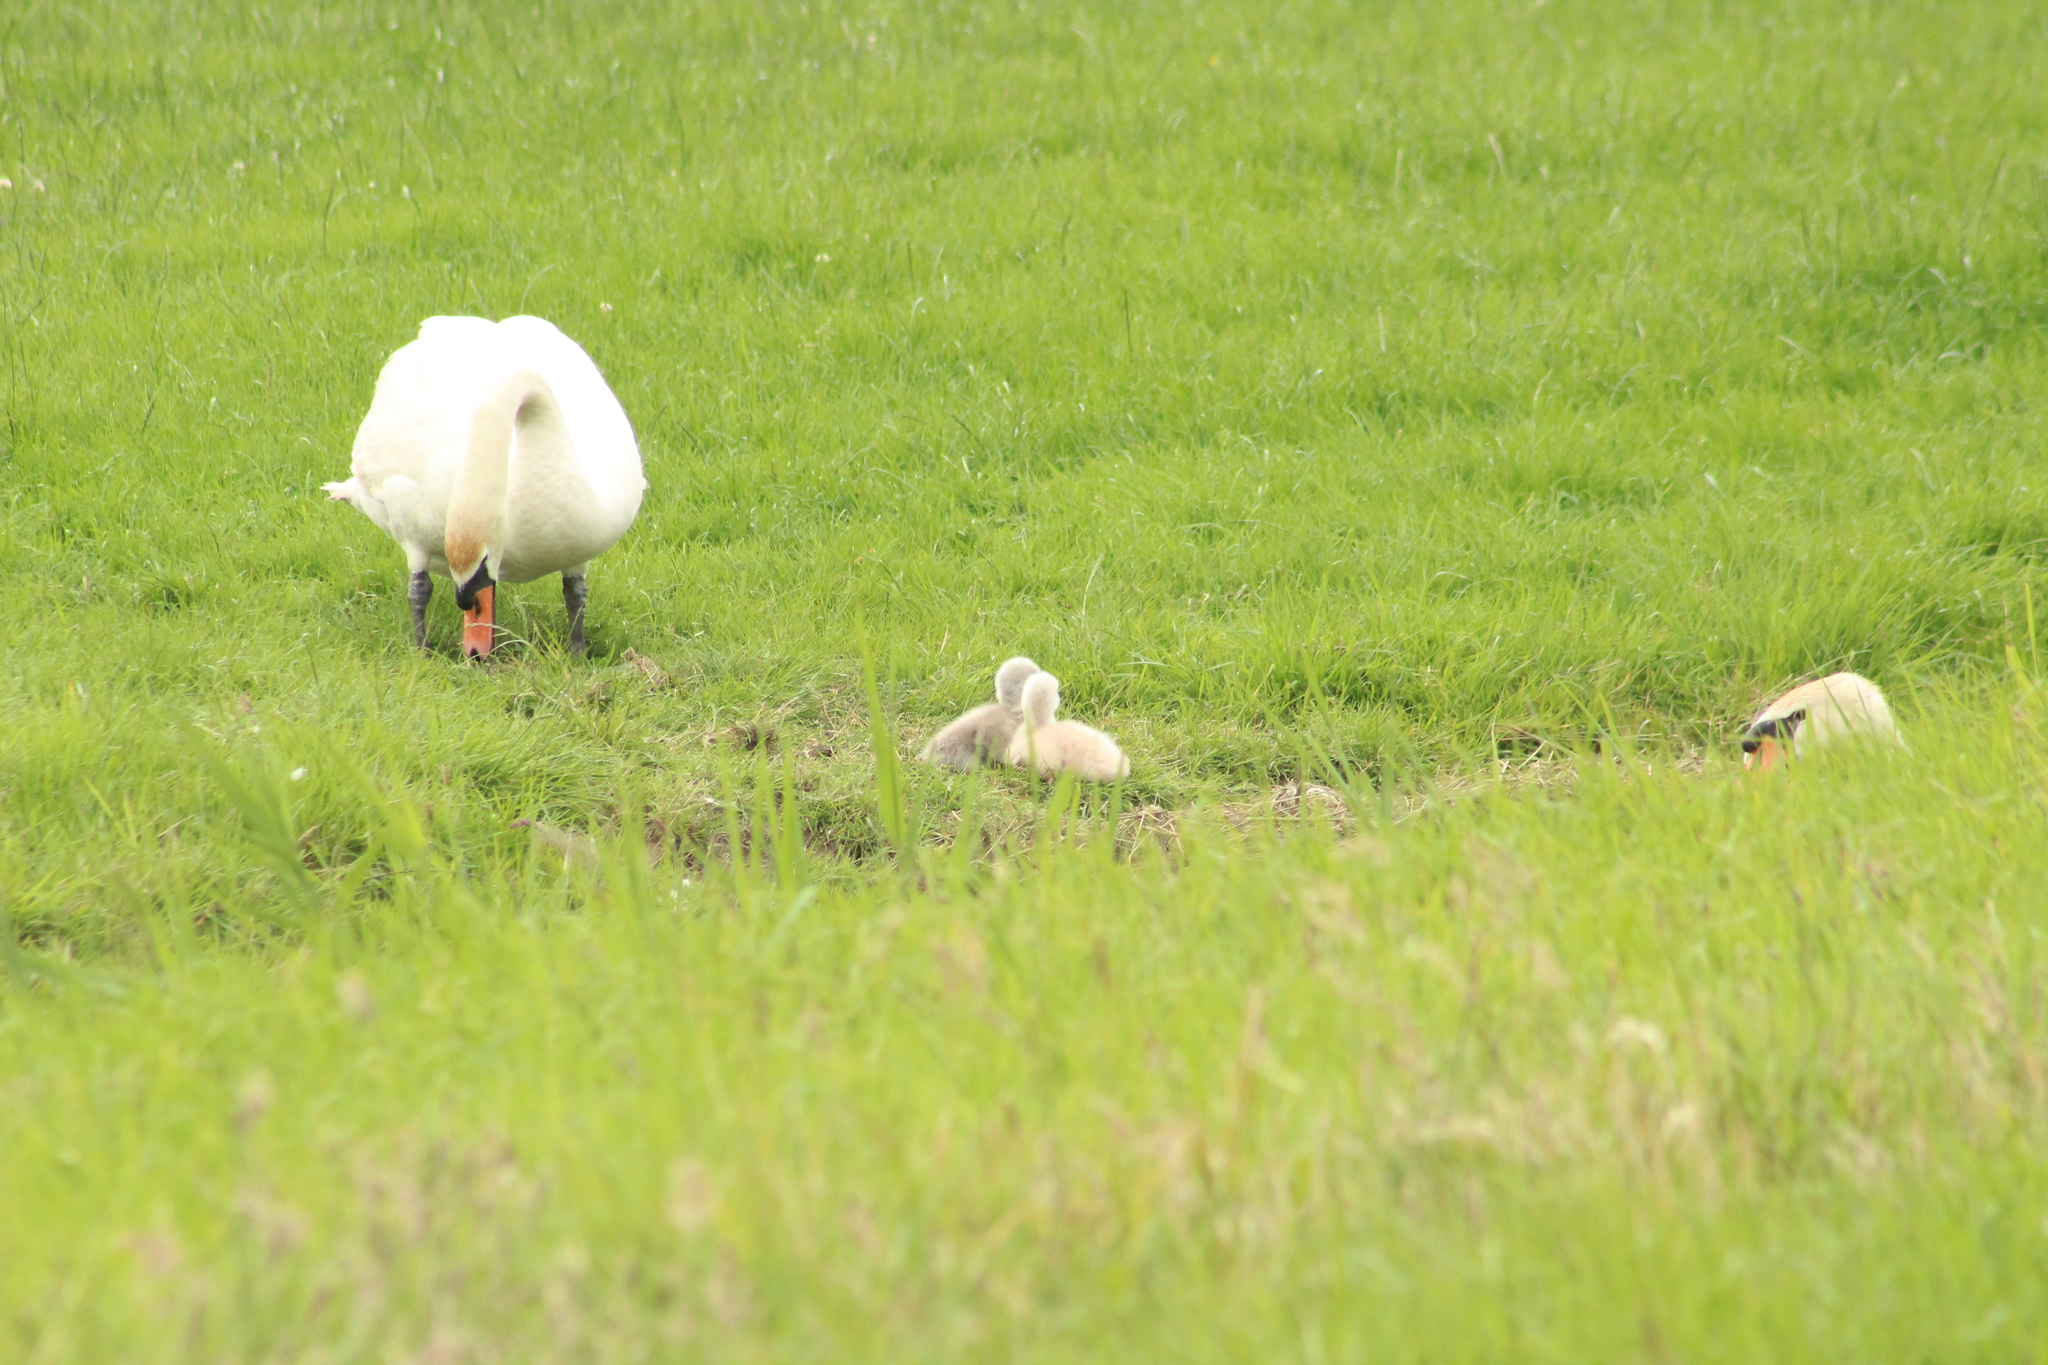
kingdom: Animalia
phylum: Chordata
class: Aves
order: Anseriformes
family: Anatidae
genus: Cygnus
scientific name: Cygnus olor
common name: Mute swan
